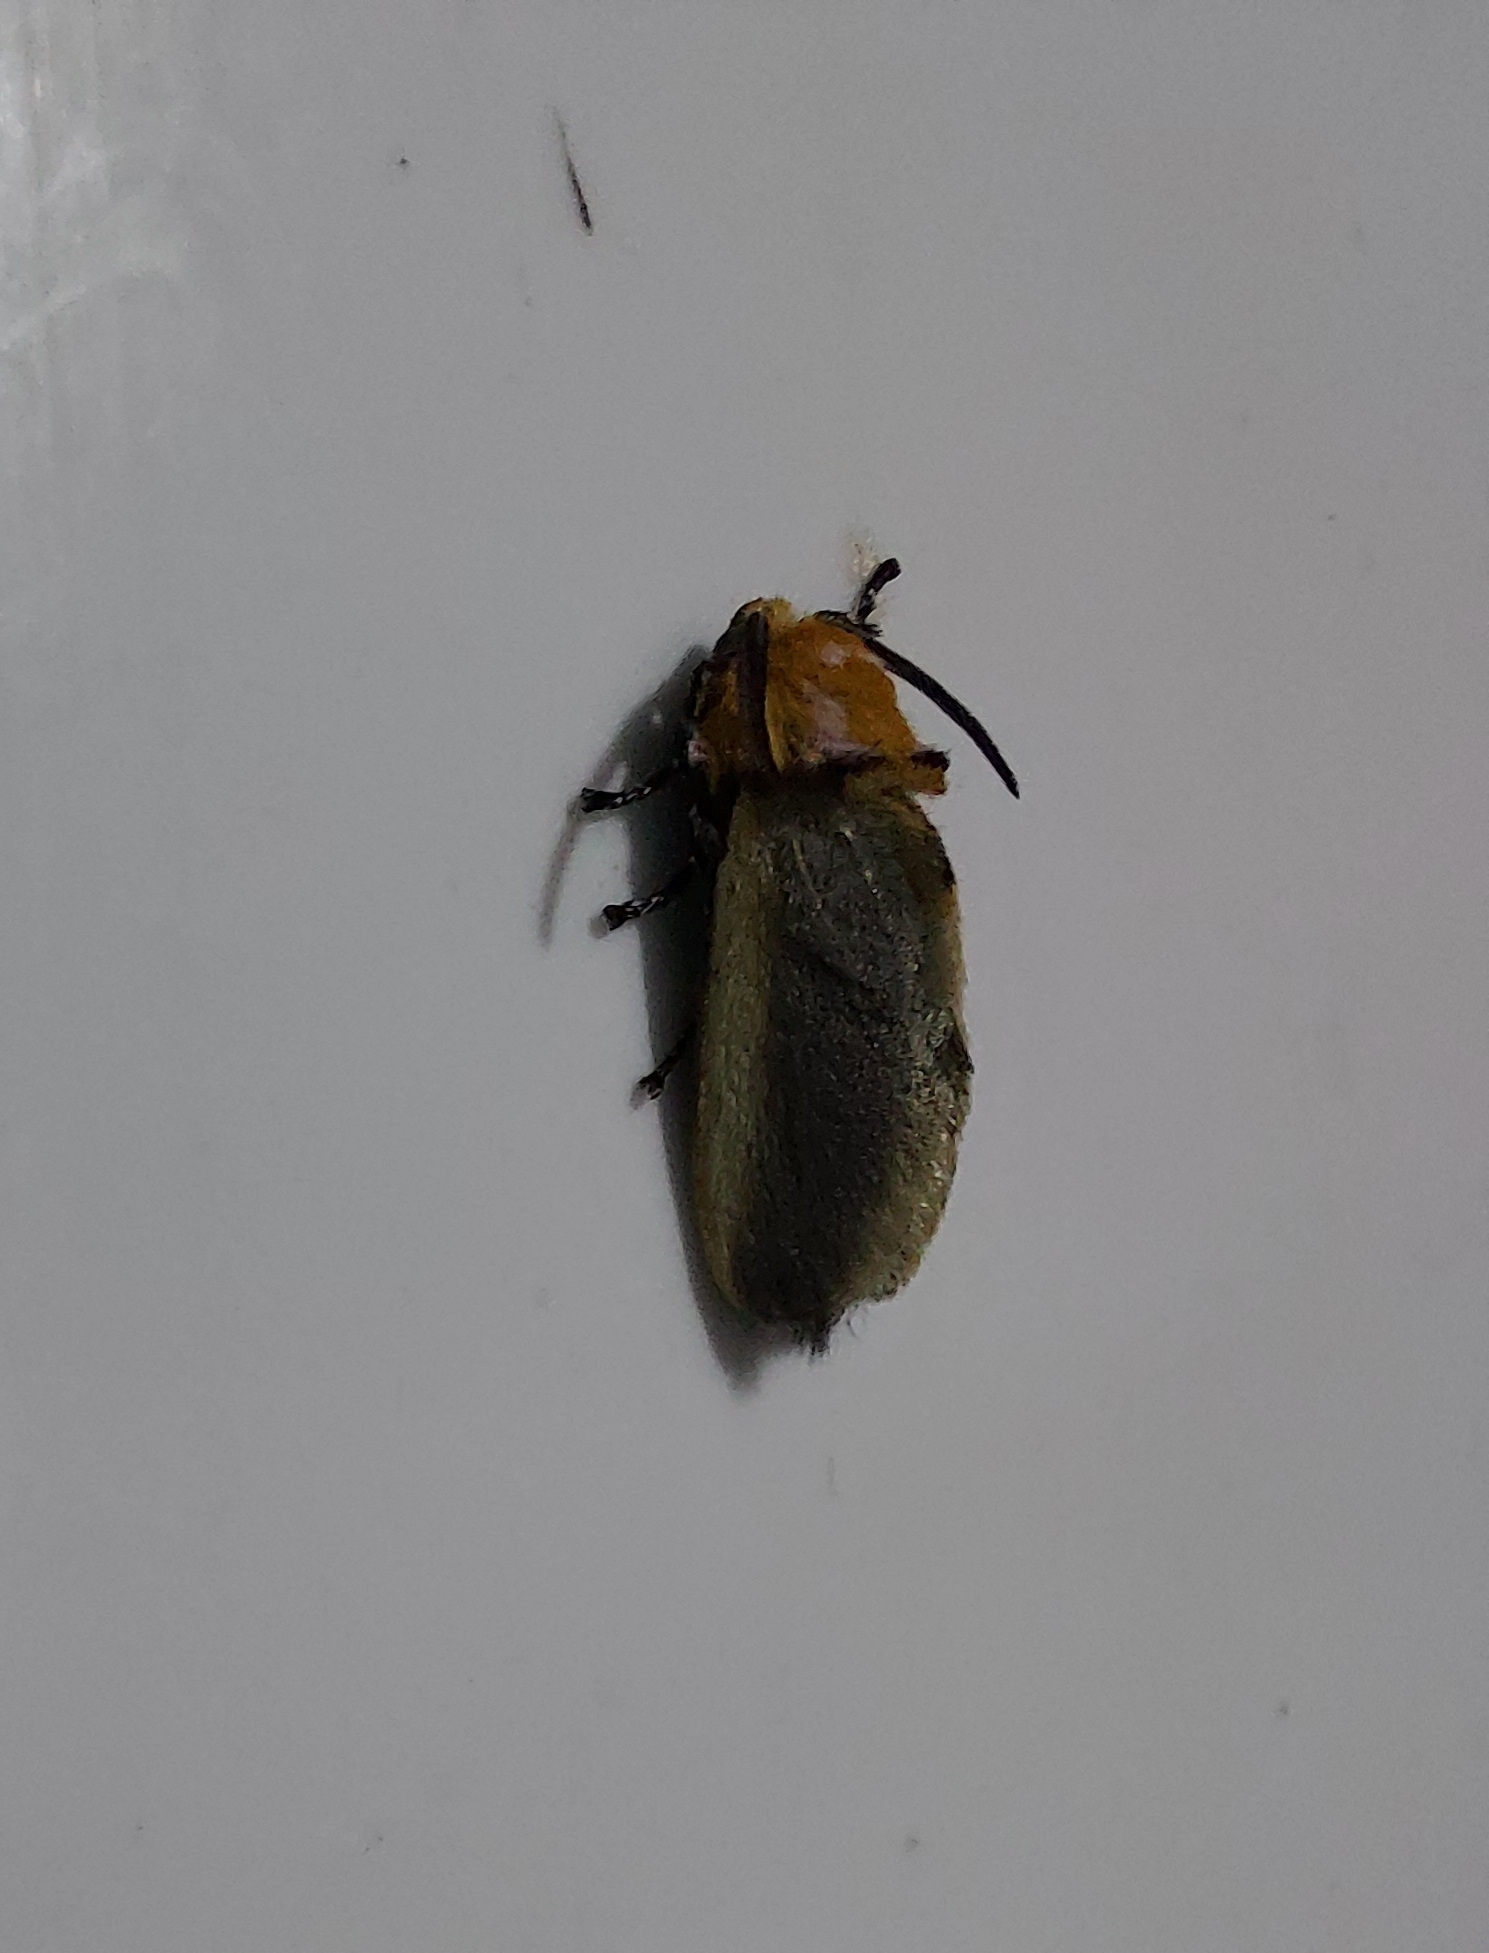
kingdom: Animalia
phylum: Arthropoda
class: Insecta
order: Lepidoptera
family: Megalopygidae
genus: Endobrachys
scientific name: Endobrachys placida
